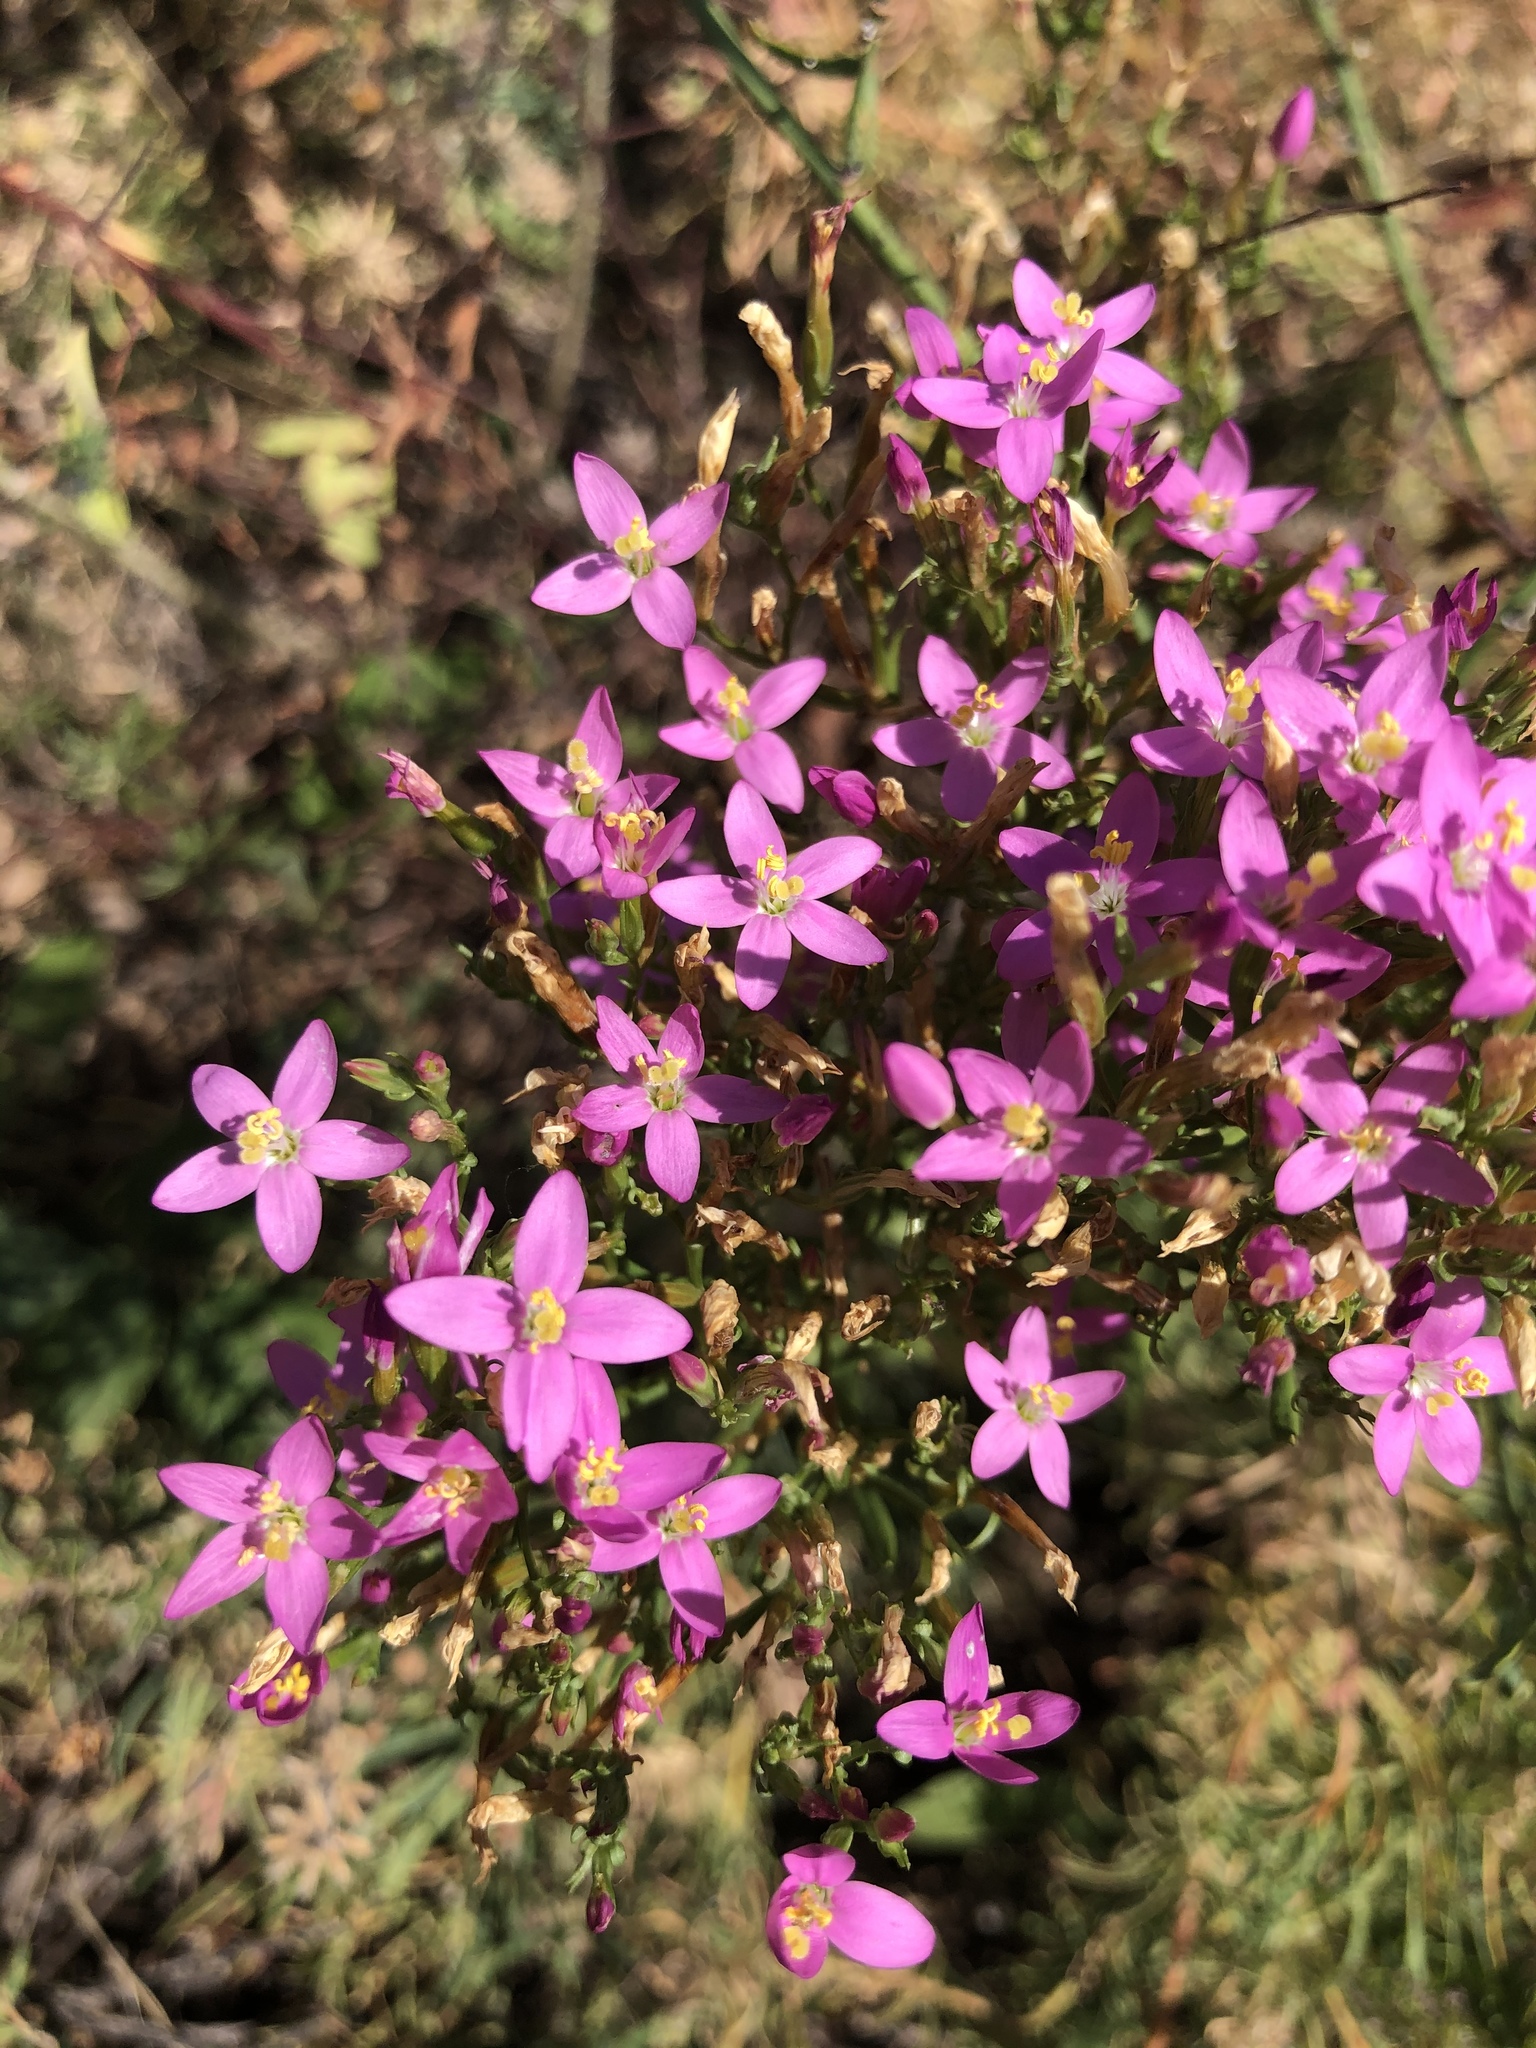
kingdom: Plantae
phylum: Tracheophyta
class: Magnoliopsida
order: Gentianales
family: Gentianaceae
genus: Centaurium
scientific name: Centaurium erythraea
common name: Common centaury
